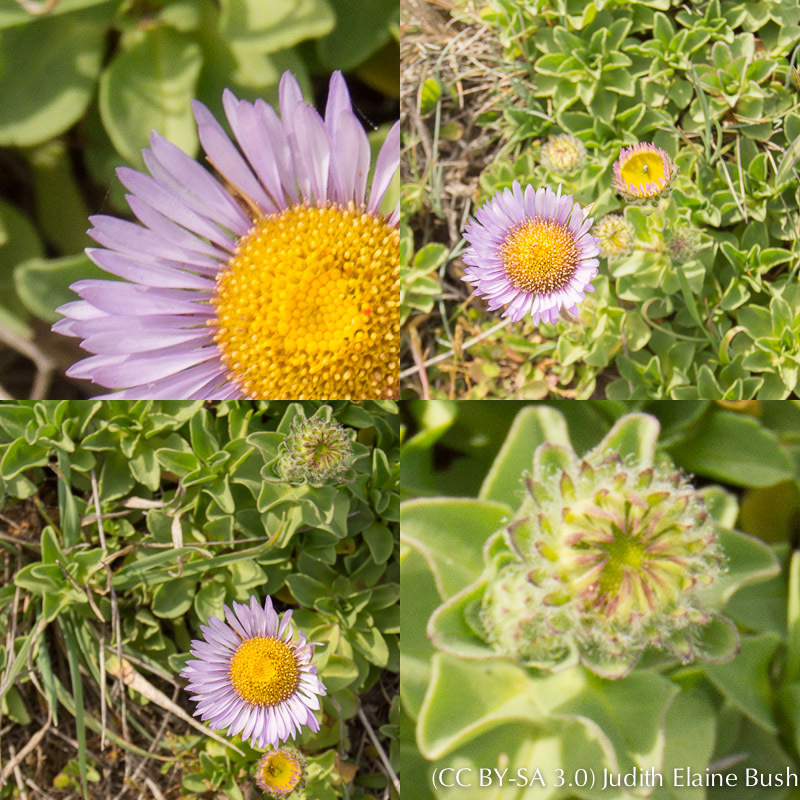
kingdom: Plantae
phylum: Tracheophyta
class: Magnoliopsida
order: Asterales
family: Asteraceae
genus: Erigeron
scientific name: Erigeron glaucus
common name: Seaside daisy
